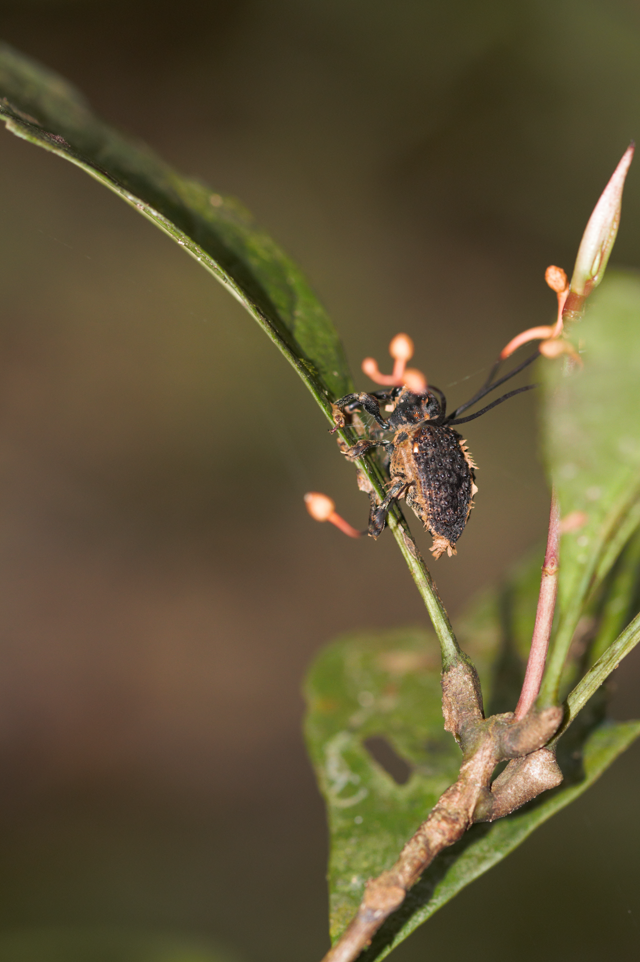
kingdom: Fungi
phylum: Ascomycota
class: Sordariomycetes
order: Hypocreales
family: Ophiocordycipitaceae
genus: Ophiocordyceps
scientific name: Ophiocordyceps curculionum
